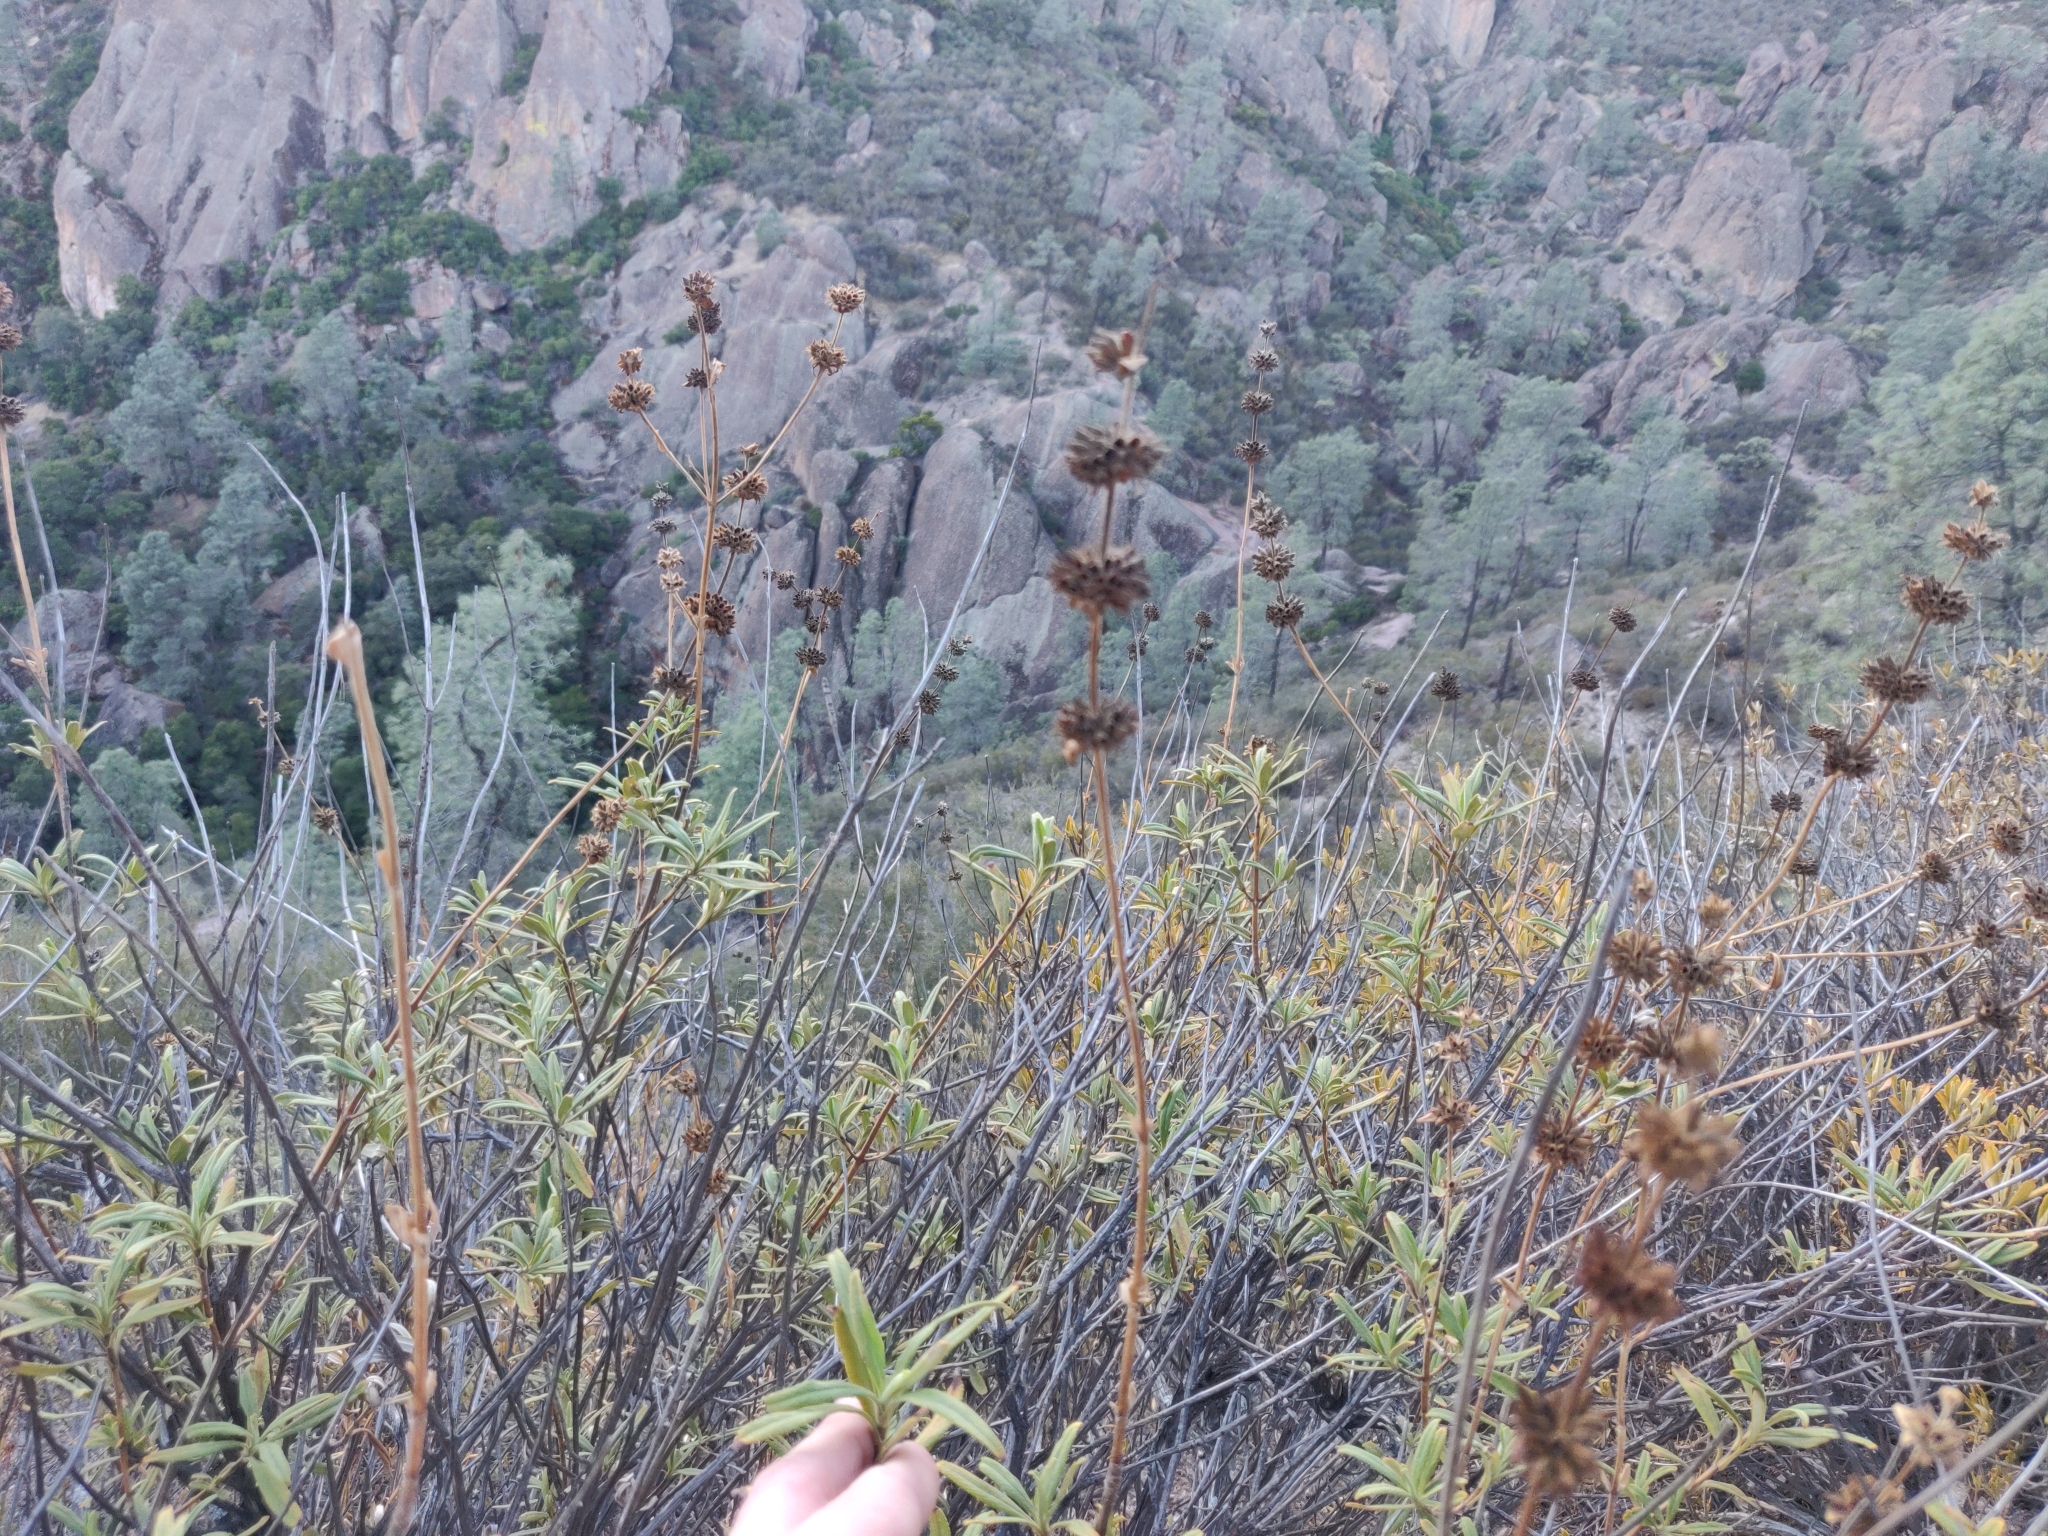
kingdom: Plantae
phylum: Tracheophyta
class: Magnoliopsida
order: Lamiales
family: Lamiaceae
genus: Salvia
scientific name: Salvia mellifera
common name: Black sage
